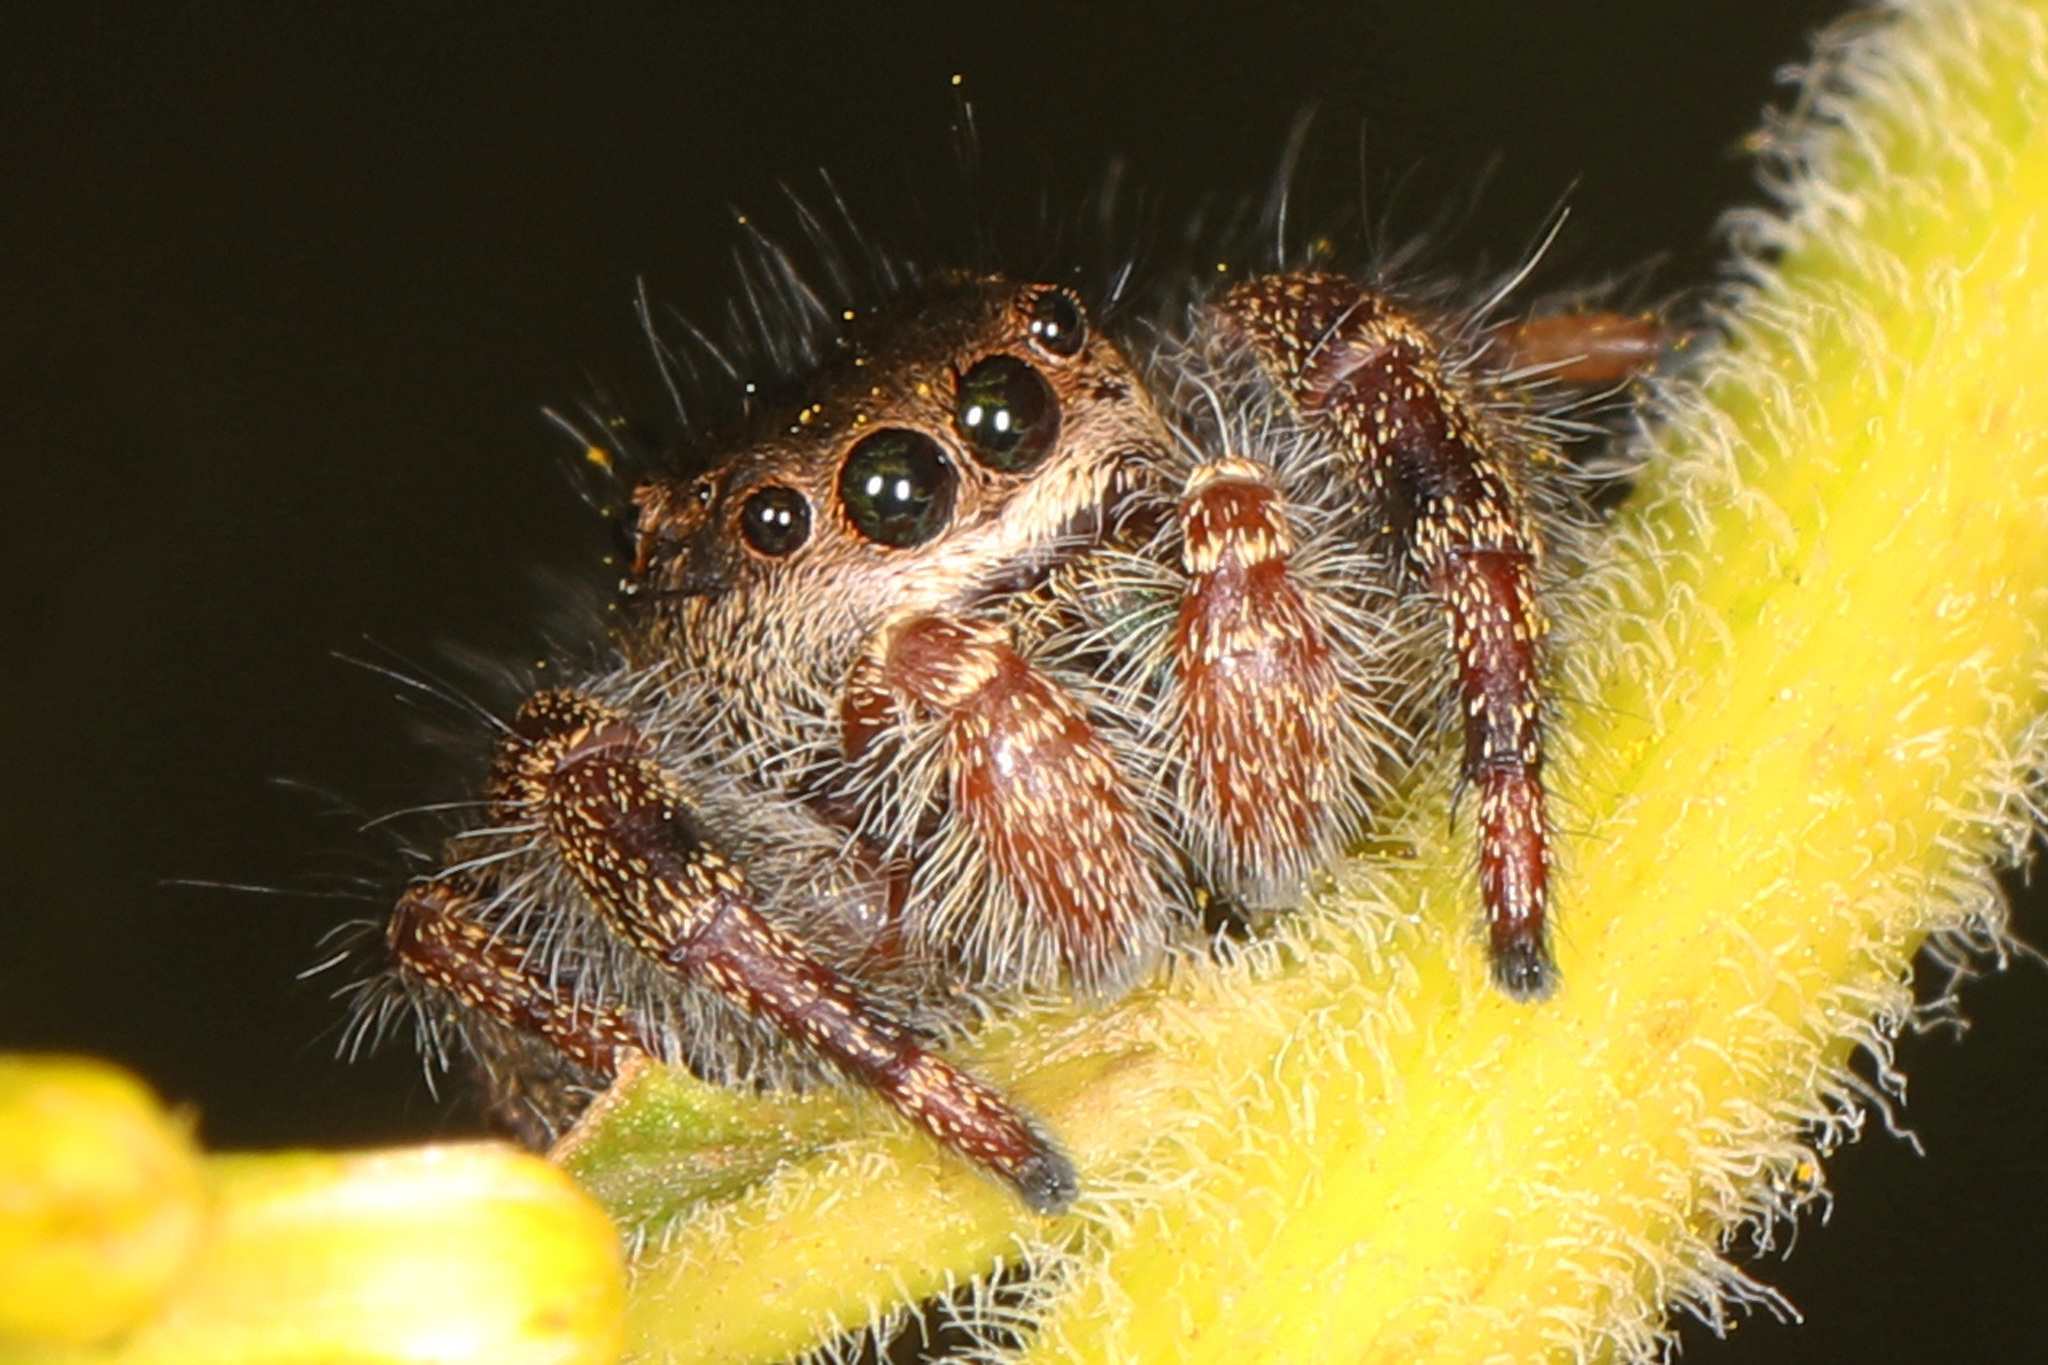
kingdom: Animalia
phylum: Arthropoda
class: Arachnida
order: Araneae
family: Salticidae
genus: Phidippus
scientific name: Phidippus princeps
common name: Grayish jumping spider
